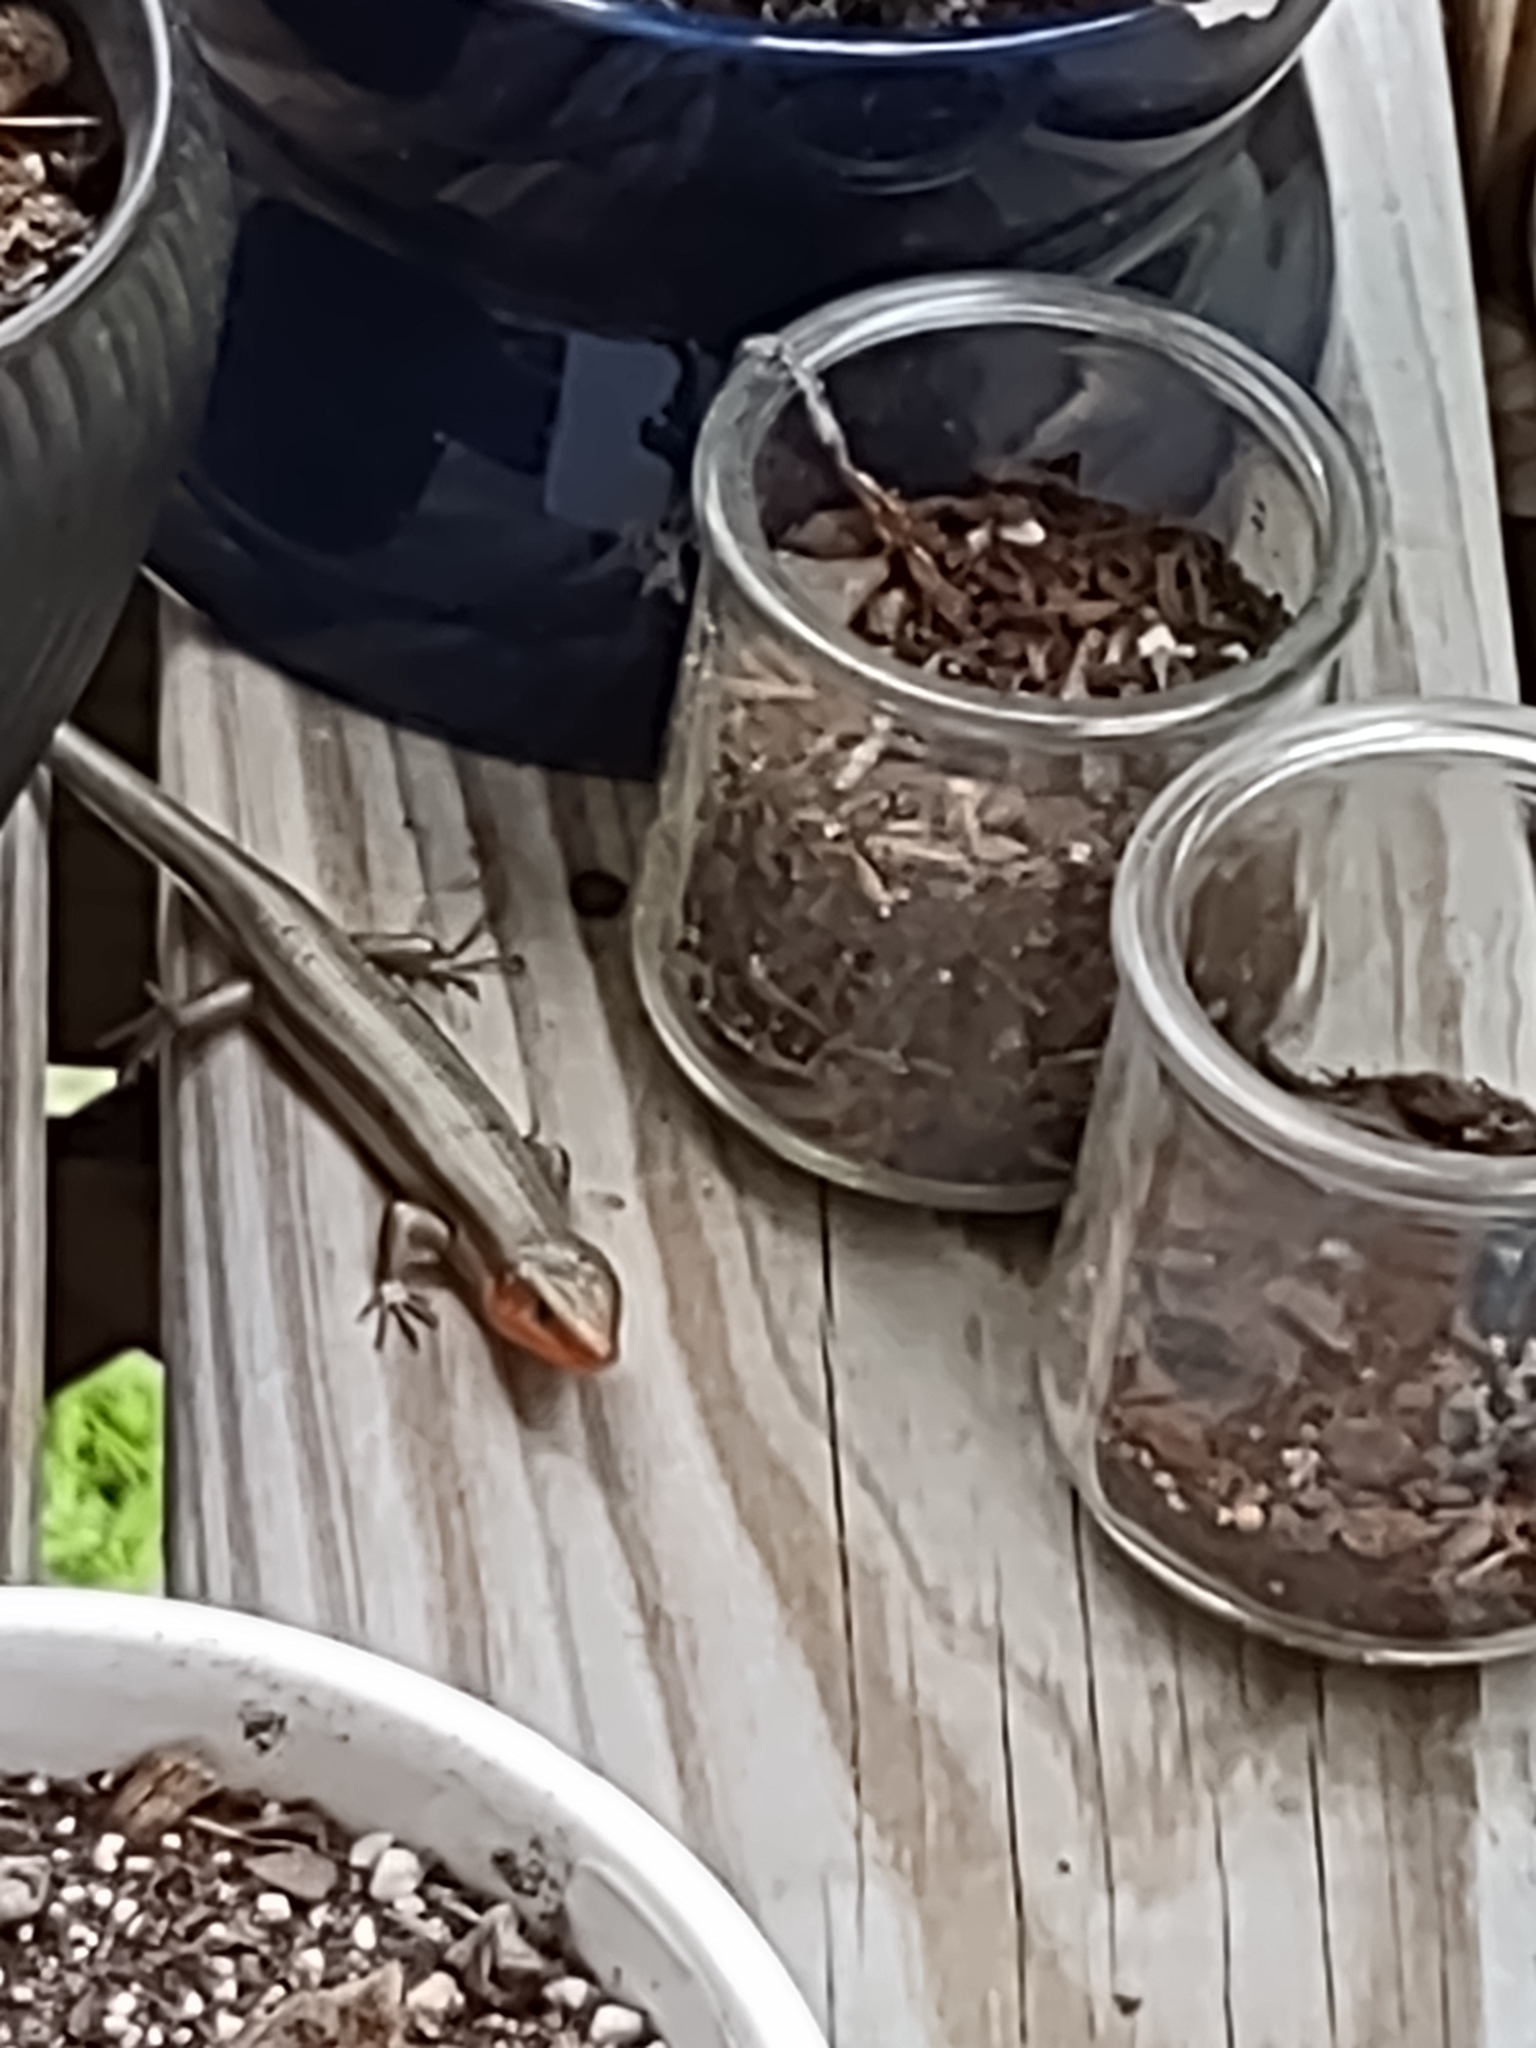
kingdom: Animalia
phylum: Chordata
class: Squamata
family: Scincidae
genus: Plestiodon
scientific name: Plestiodon fasciatus
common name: Five-lined skink
